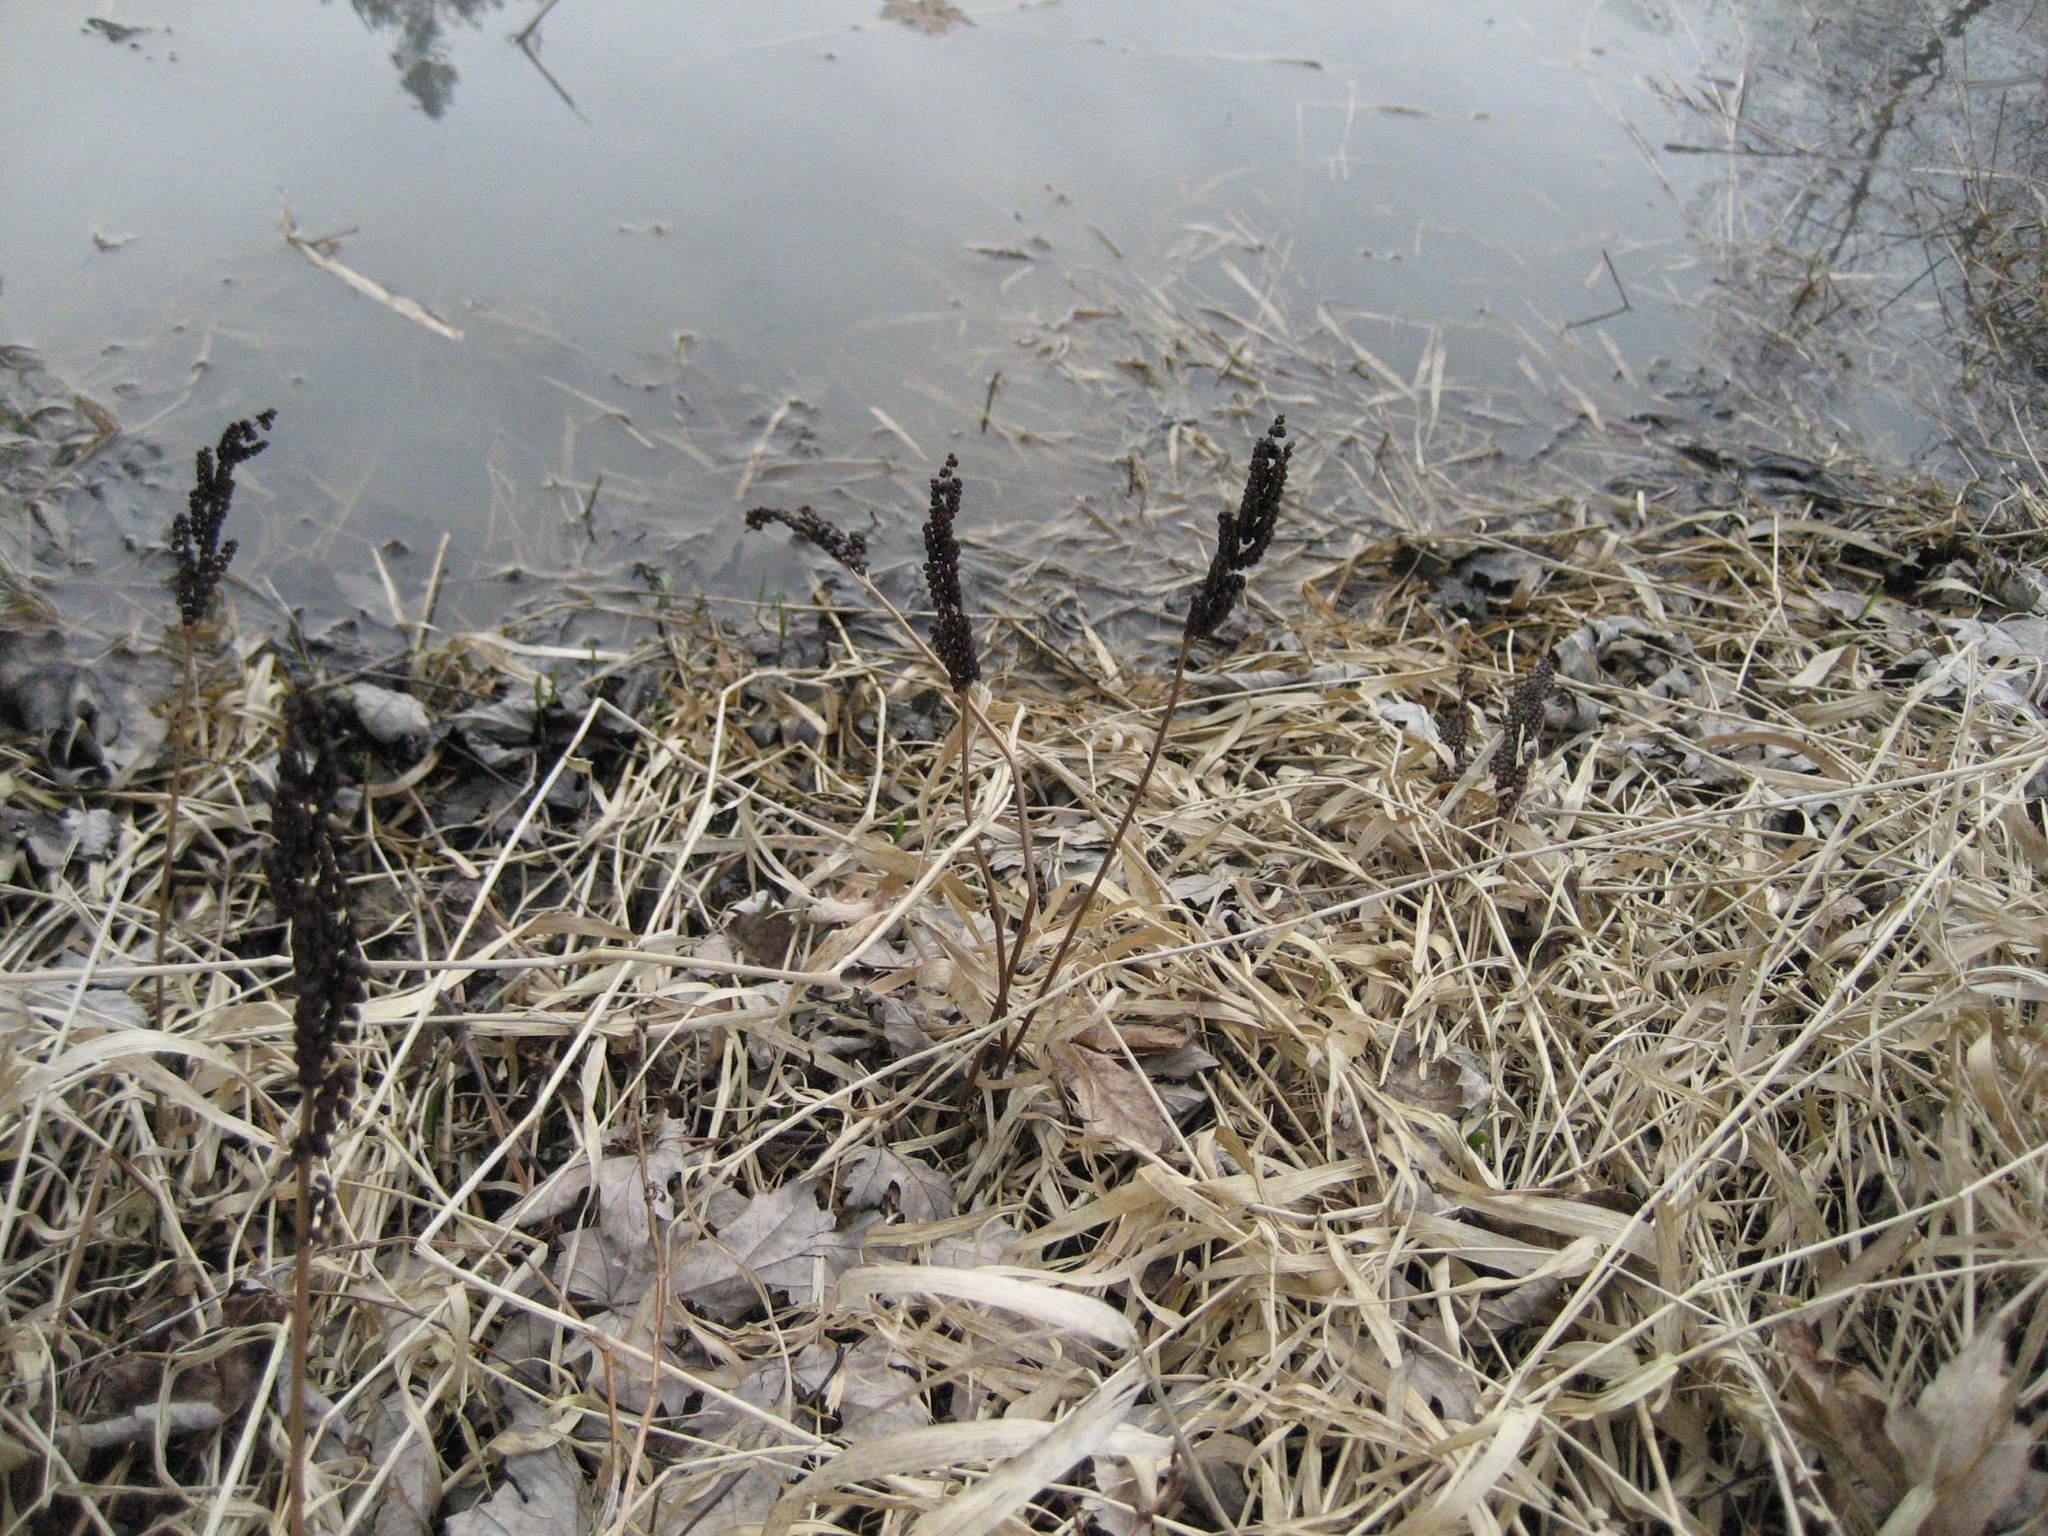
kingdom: Plantae
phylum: Tracheophyta
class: Polypodiopsida
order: Polypodiales
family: Onocleaceae
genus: Onoclea
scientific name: Onoclea sensibilis
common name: Sensitive fern
